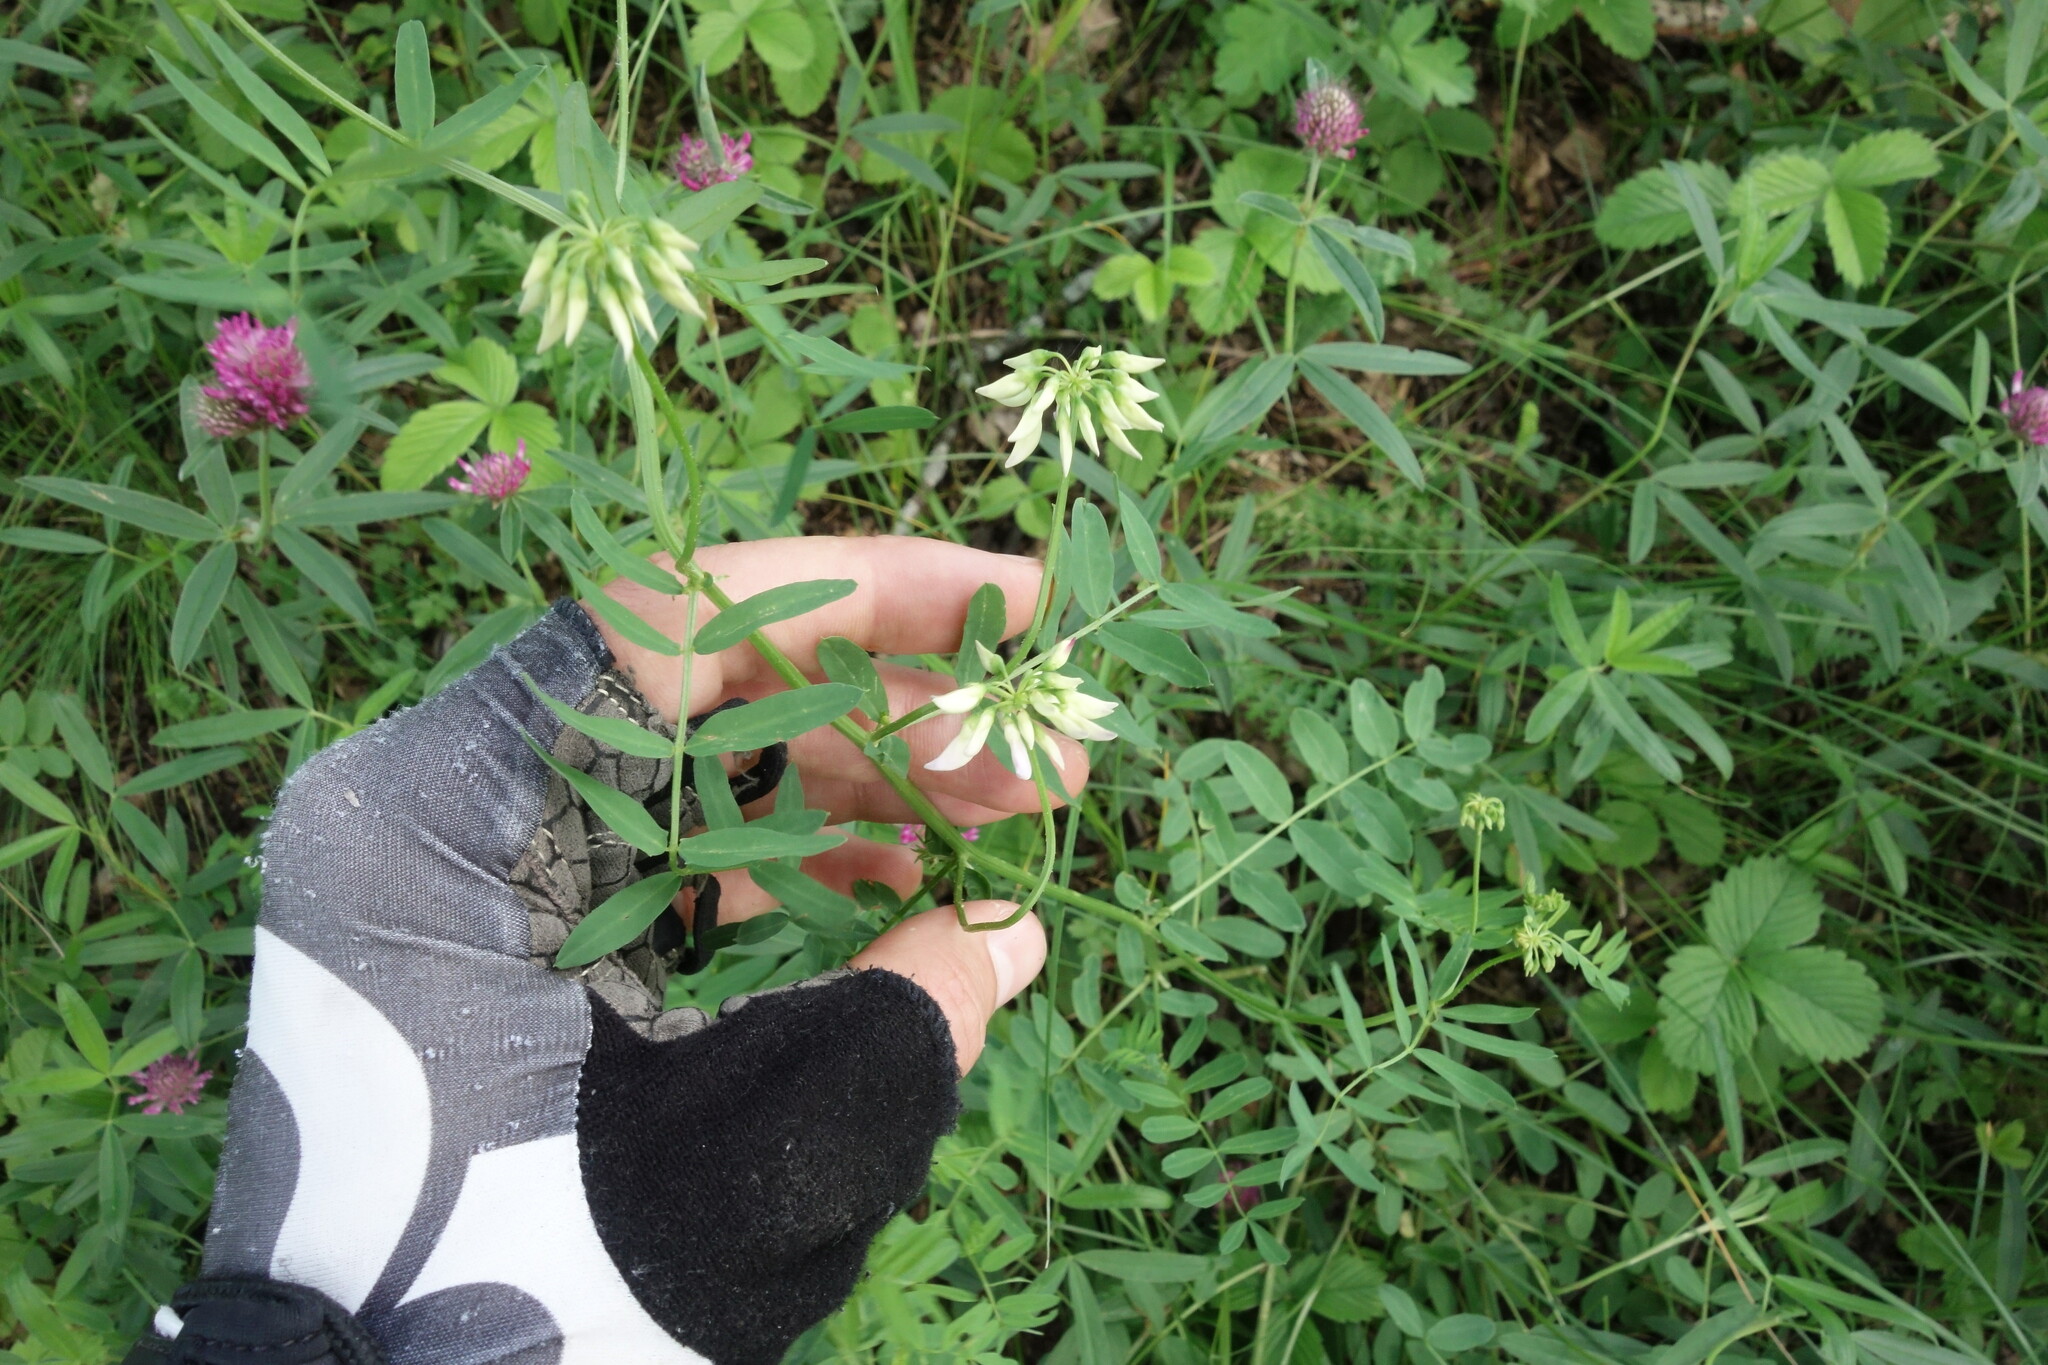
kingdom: Plantae
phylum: Tracheophyta
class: Magnoliopsida
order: Fabales
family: Fabaceae
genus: Coronilla
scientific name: Coronilla varia
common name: Crownvetch
